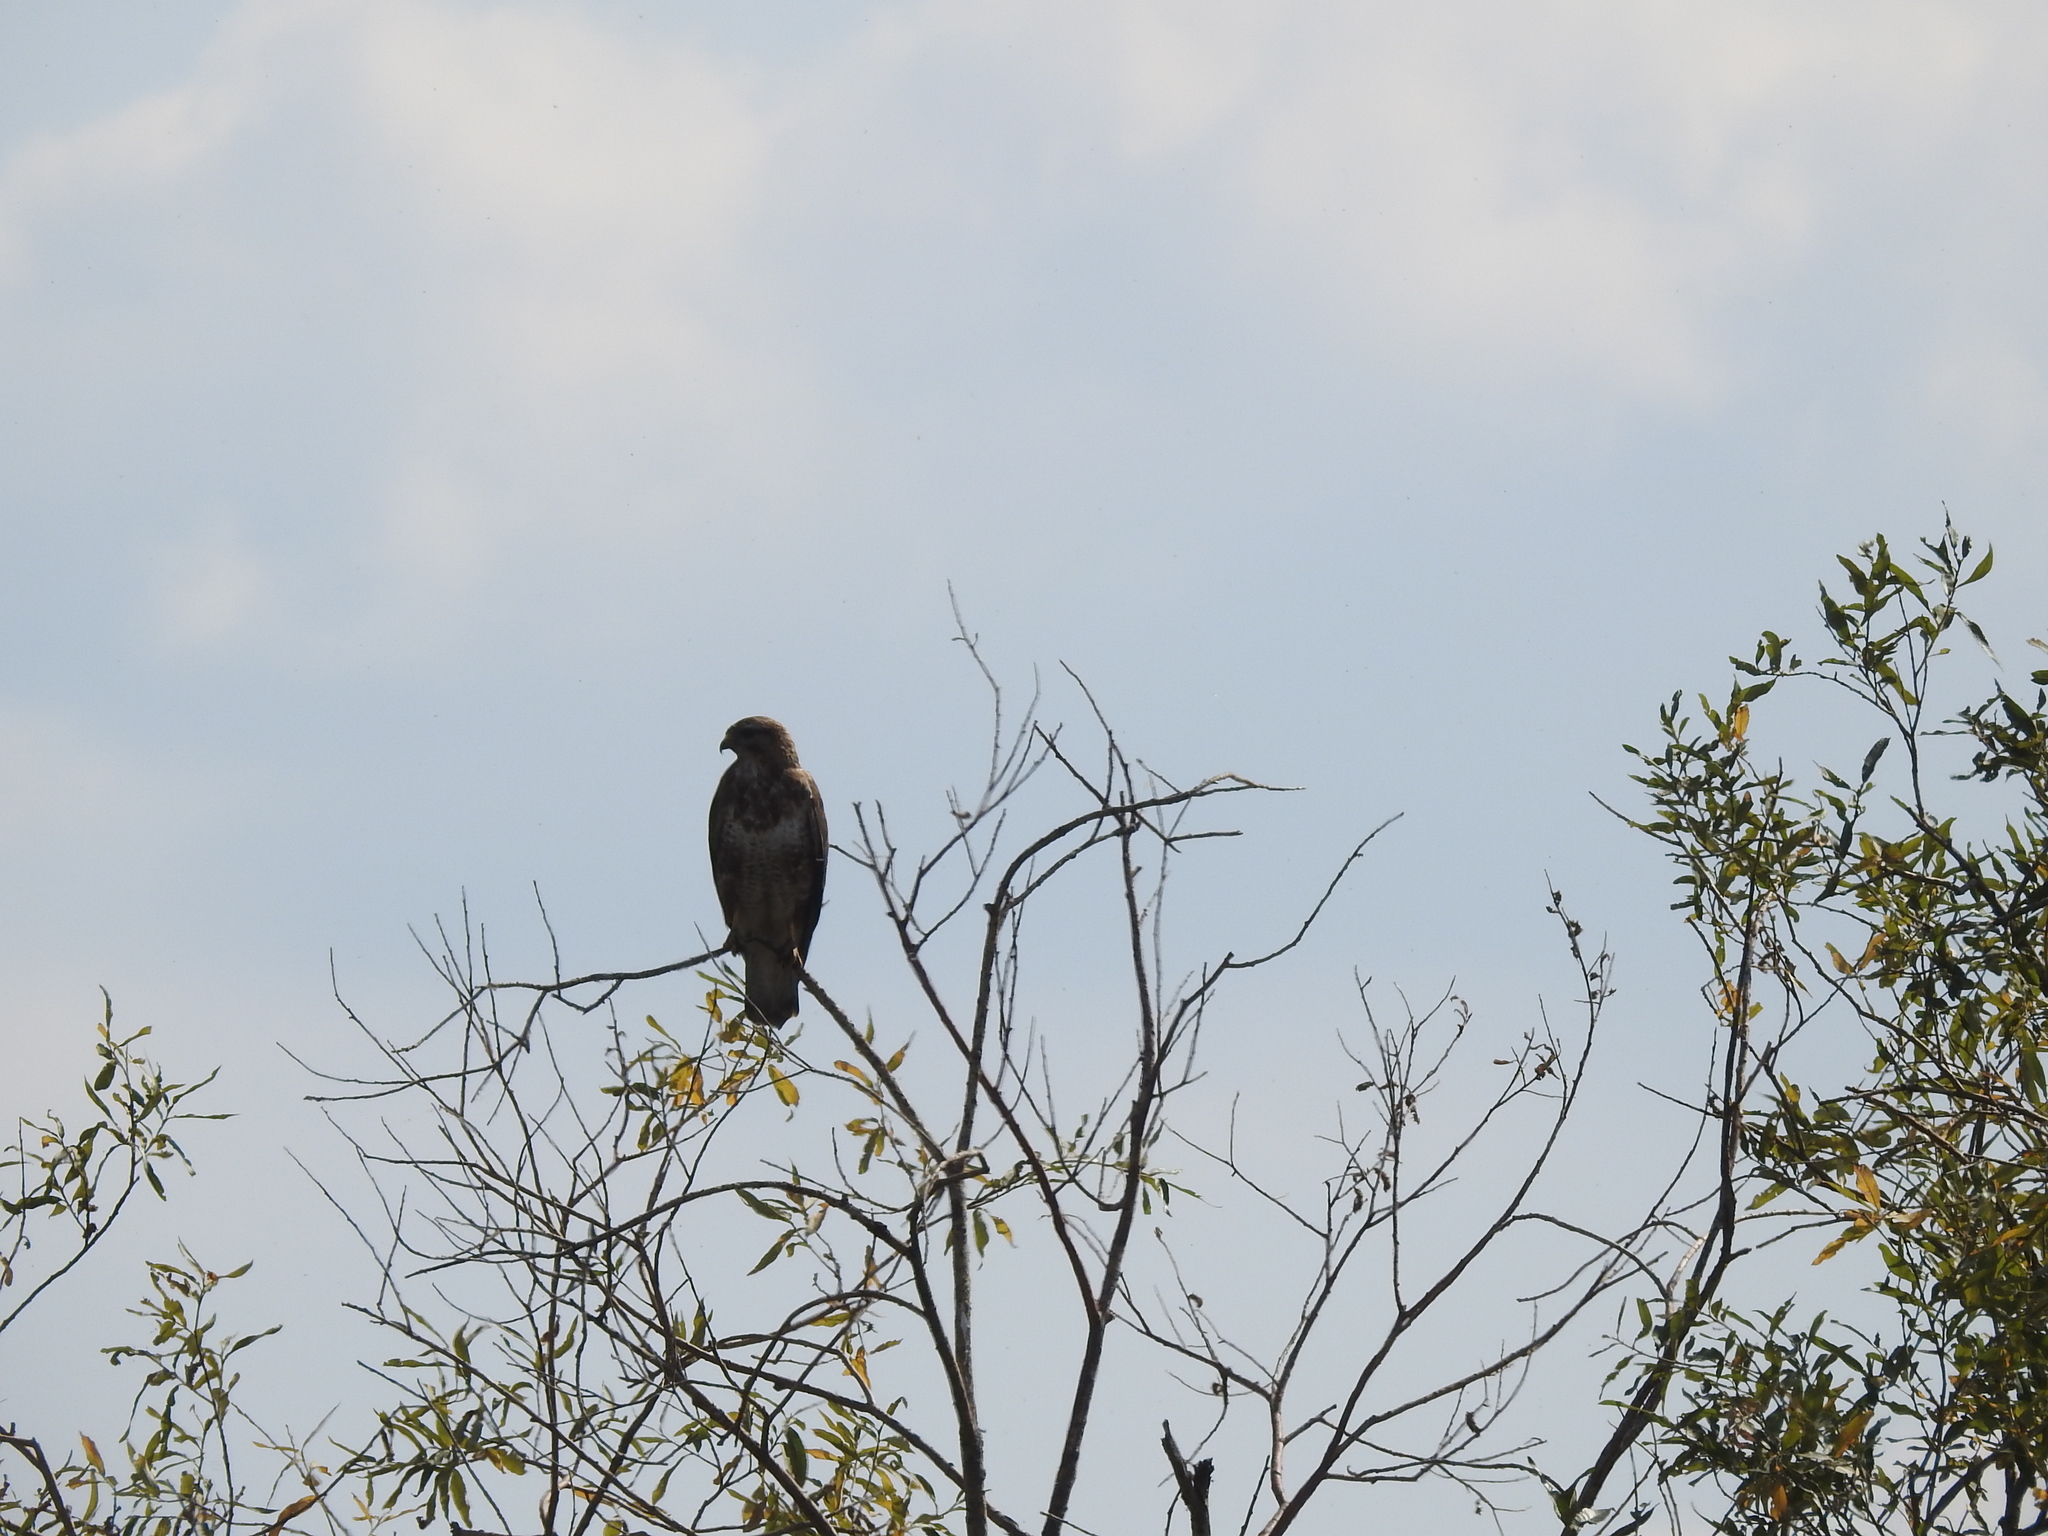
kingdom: Animalia
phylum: Chordata
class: Aves
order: Accipitriformes
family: Accipitridae
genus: Buteo
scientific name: Buteo buteo
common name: Common buzzard
